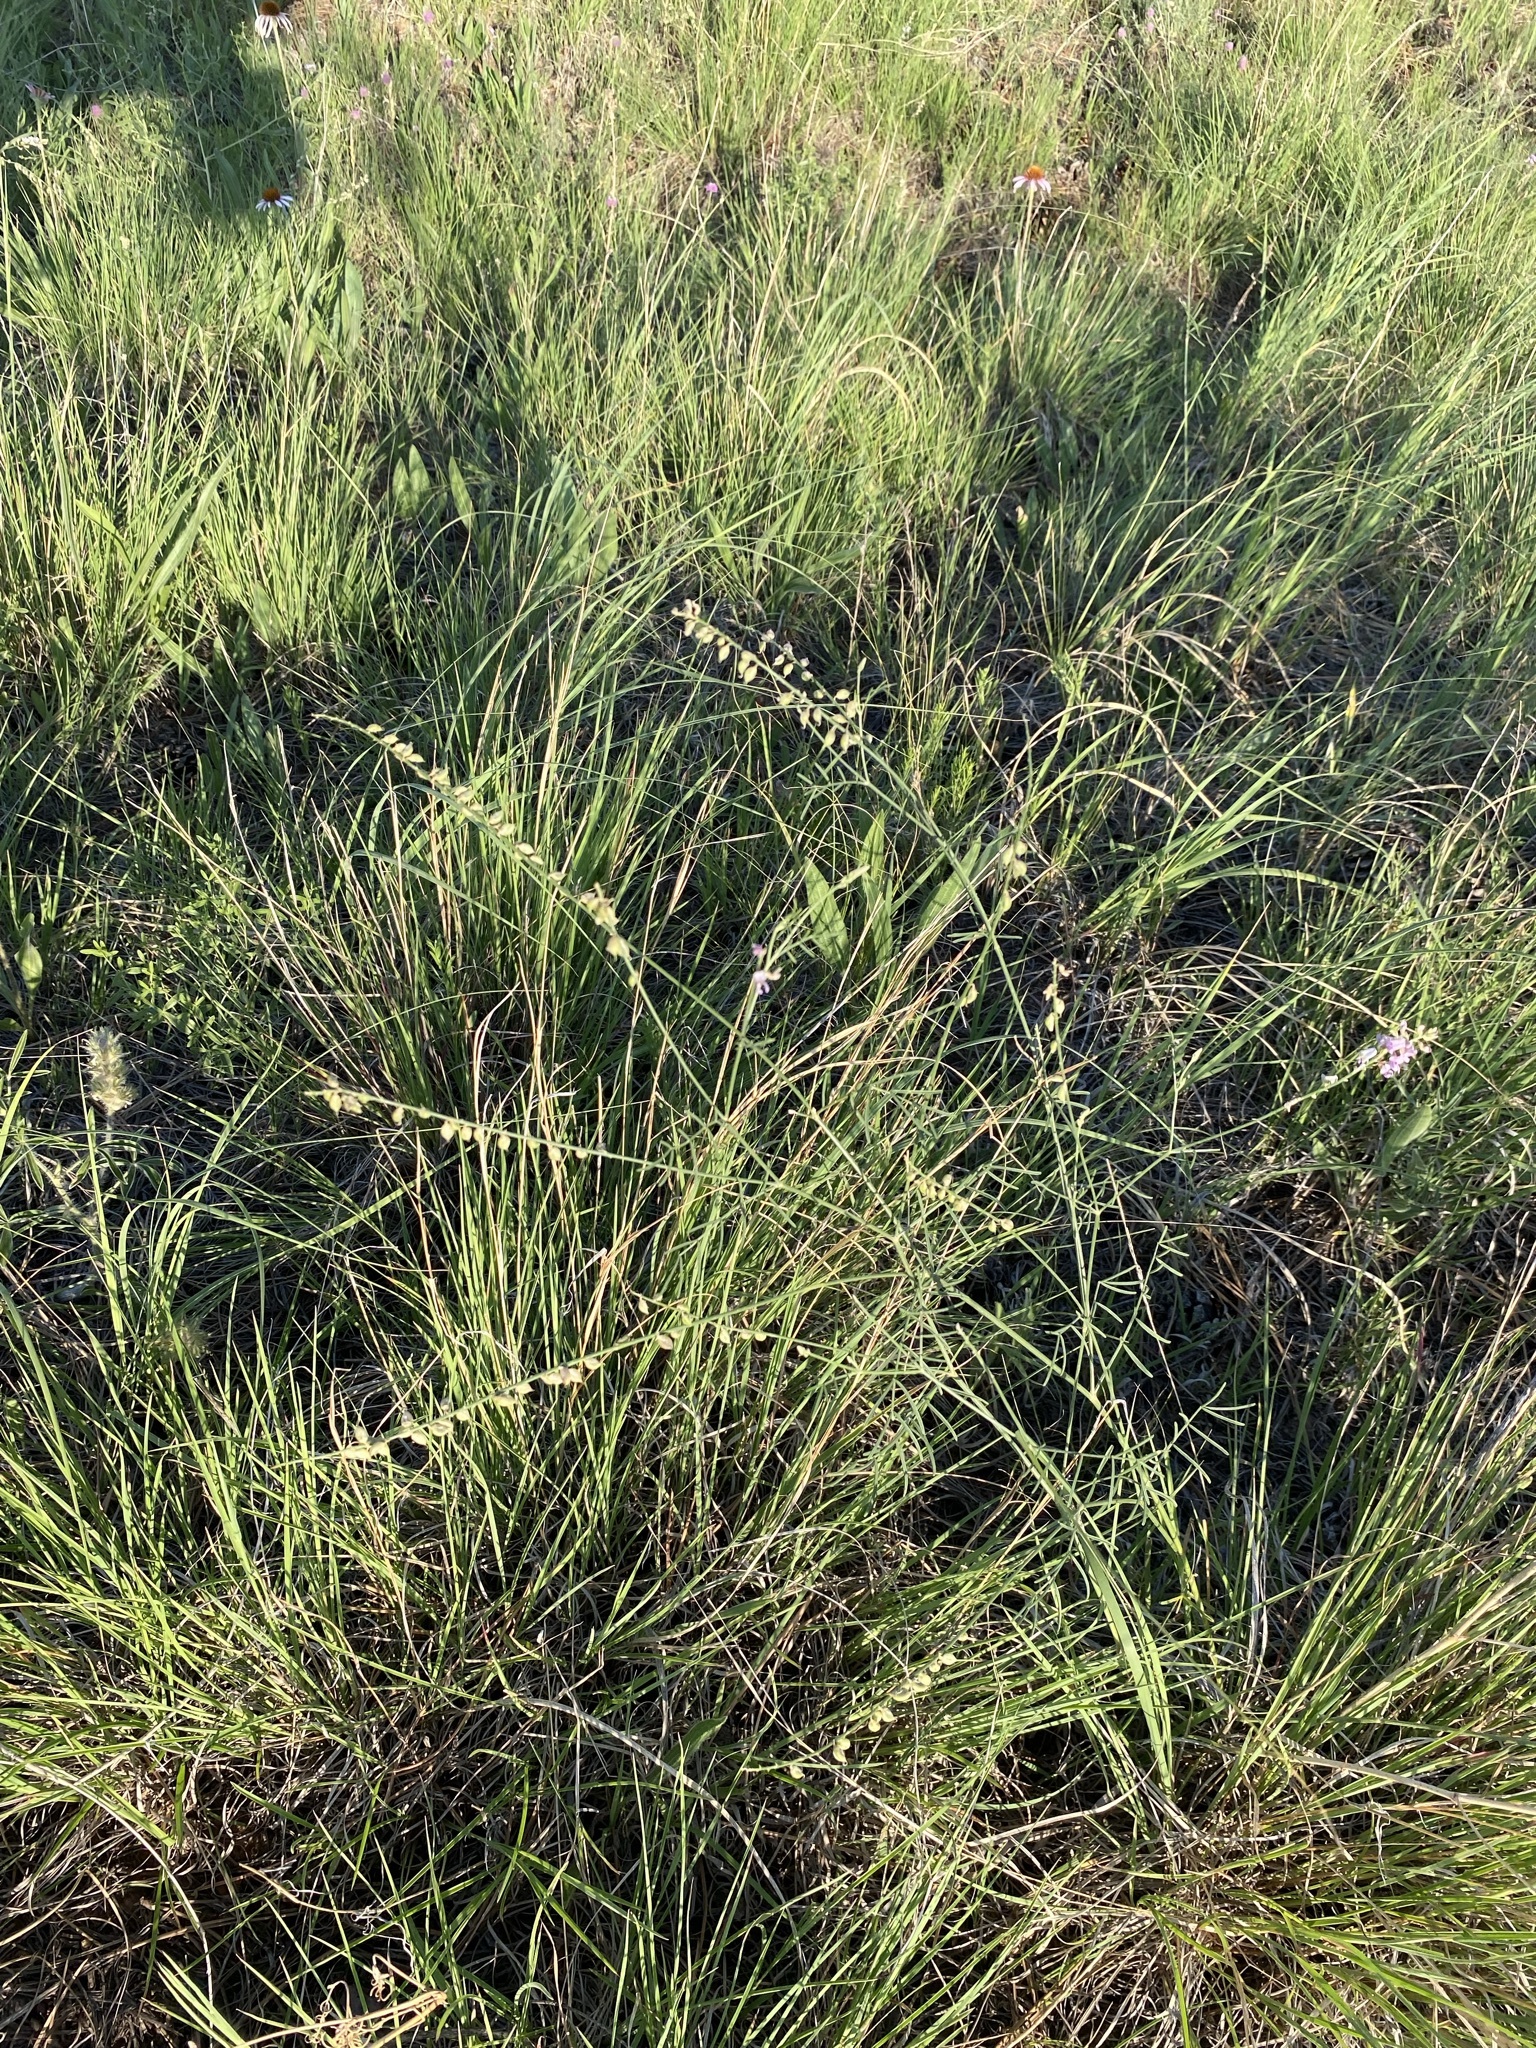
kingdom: Plantae
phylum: Tracheophyta
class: Magnoliopsida
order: Fabales
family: Fabaceae
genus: Astragalus
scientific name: Astragalus gracilis
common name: Slender milk-vetch
